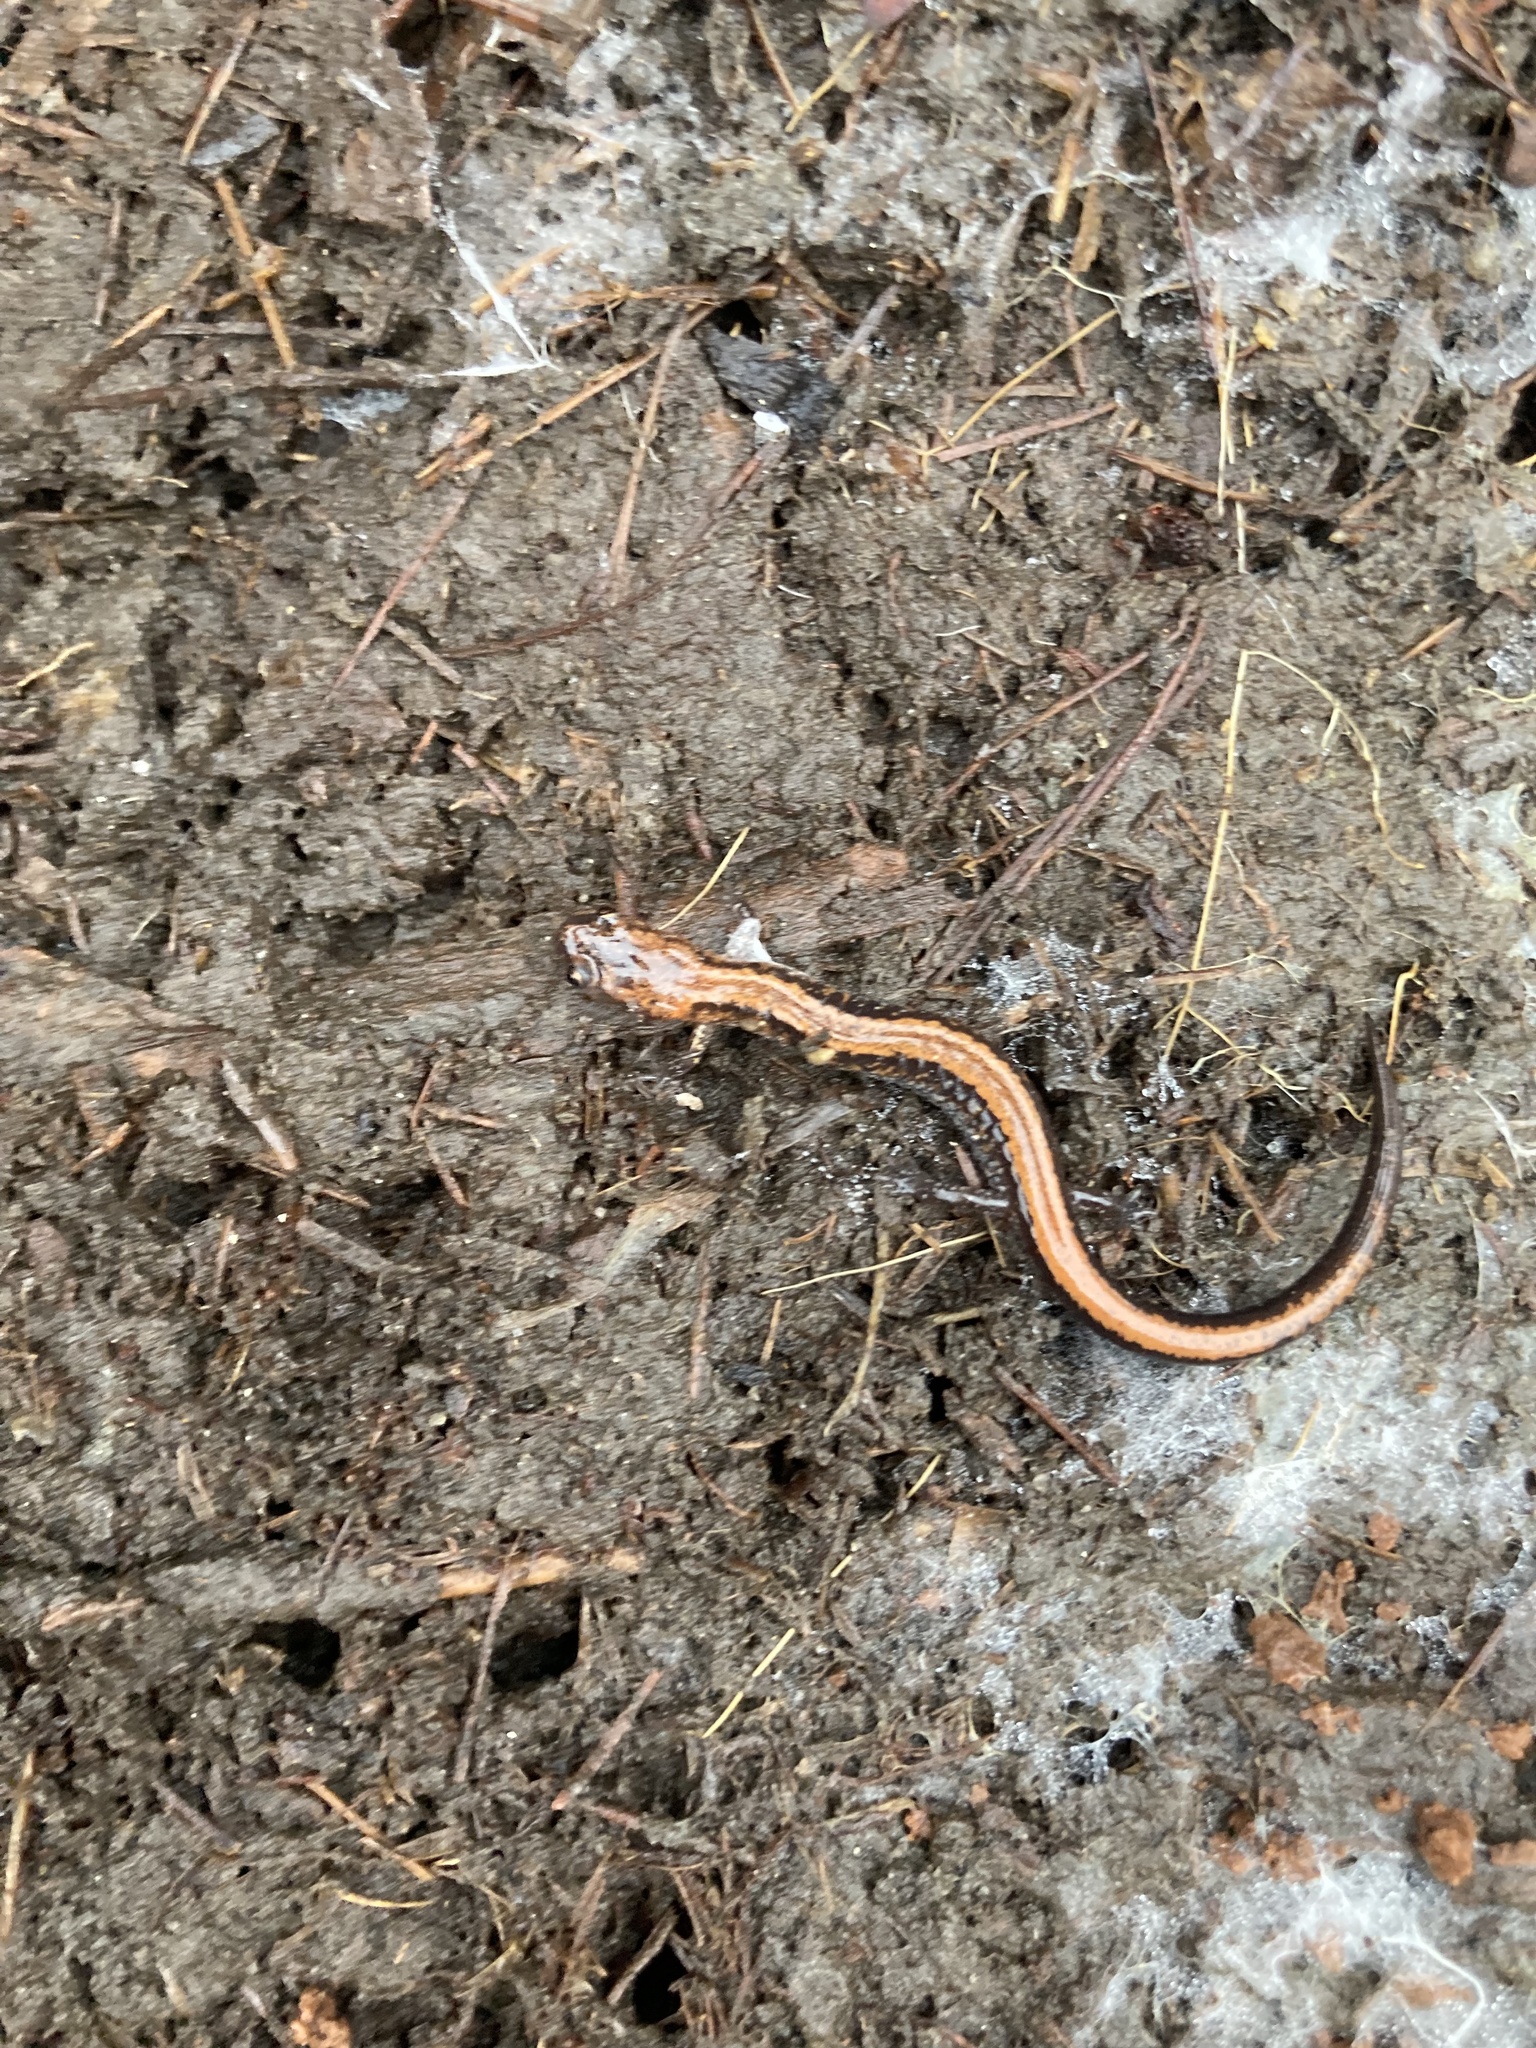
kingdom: Animalia
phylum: Chordata
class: Amphibia
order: Caudata
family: Plethodontidae
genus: Plethodon
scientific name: Plethodon cinereus
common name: Redback salamander
